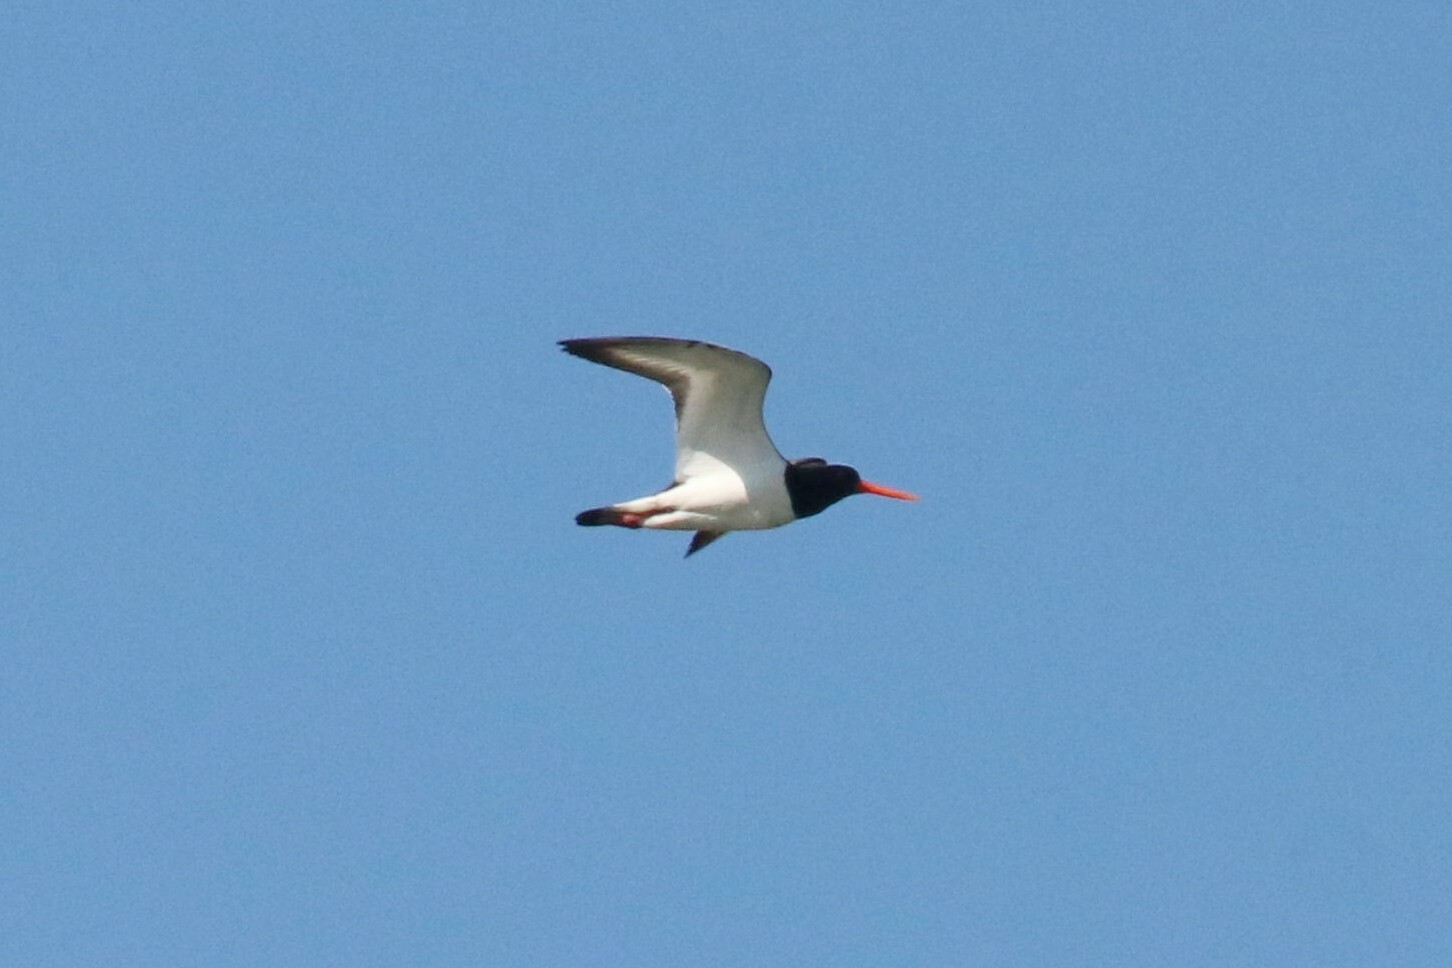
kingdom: Animalia
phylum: Chordata
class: Aves
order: Charadriiformes
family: Haematopodidae
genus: Haematopus
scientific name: Haematopus ostralegus
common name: Eurasian oystercatcher
